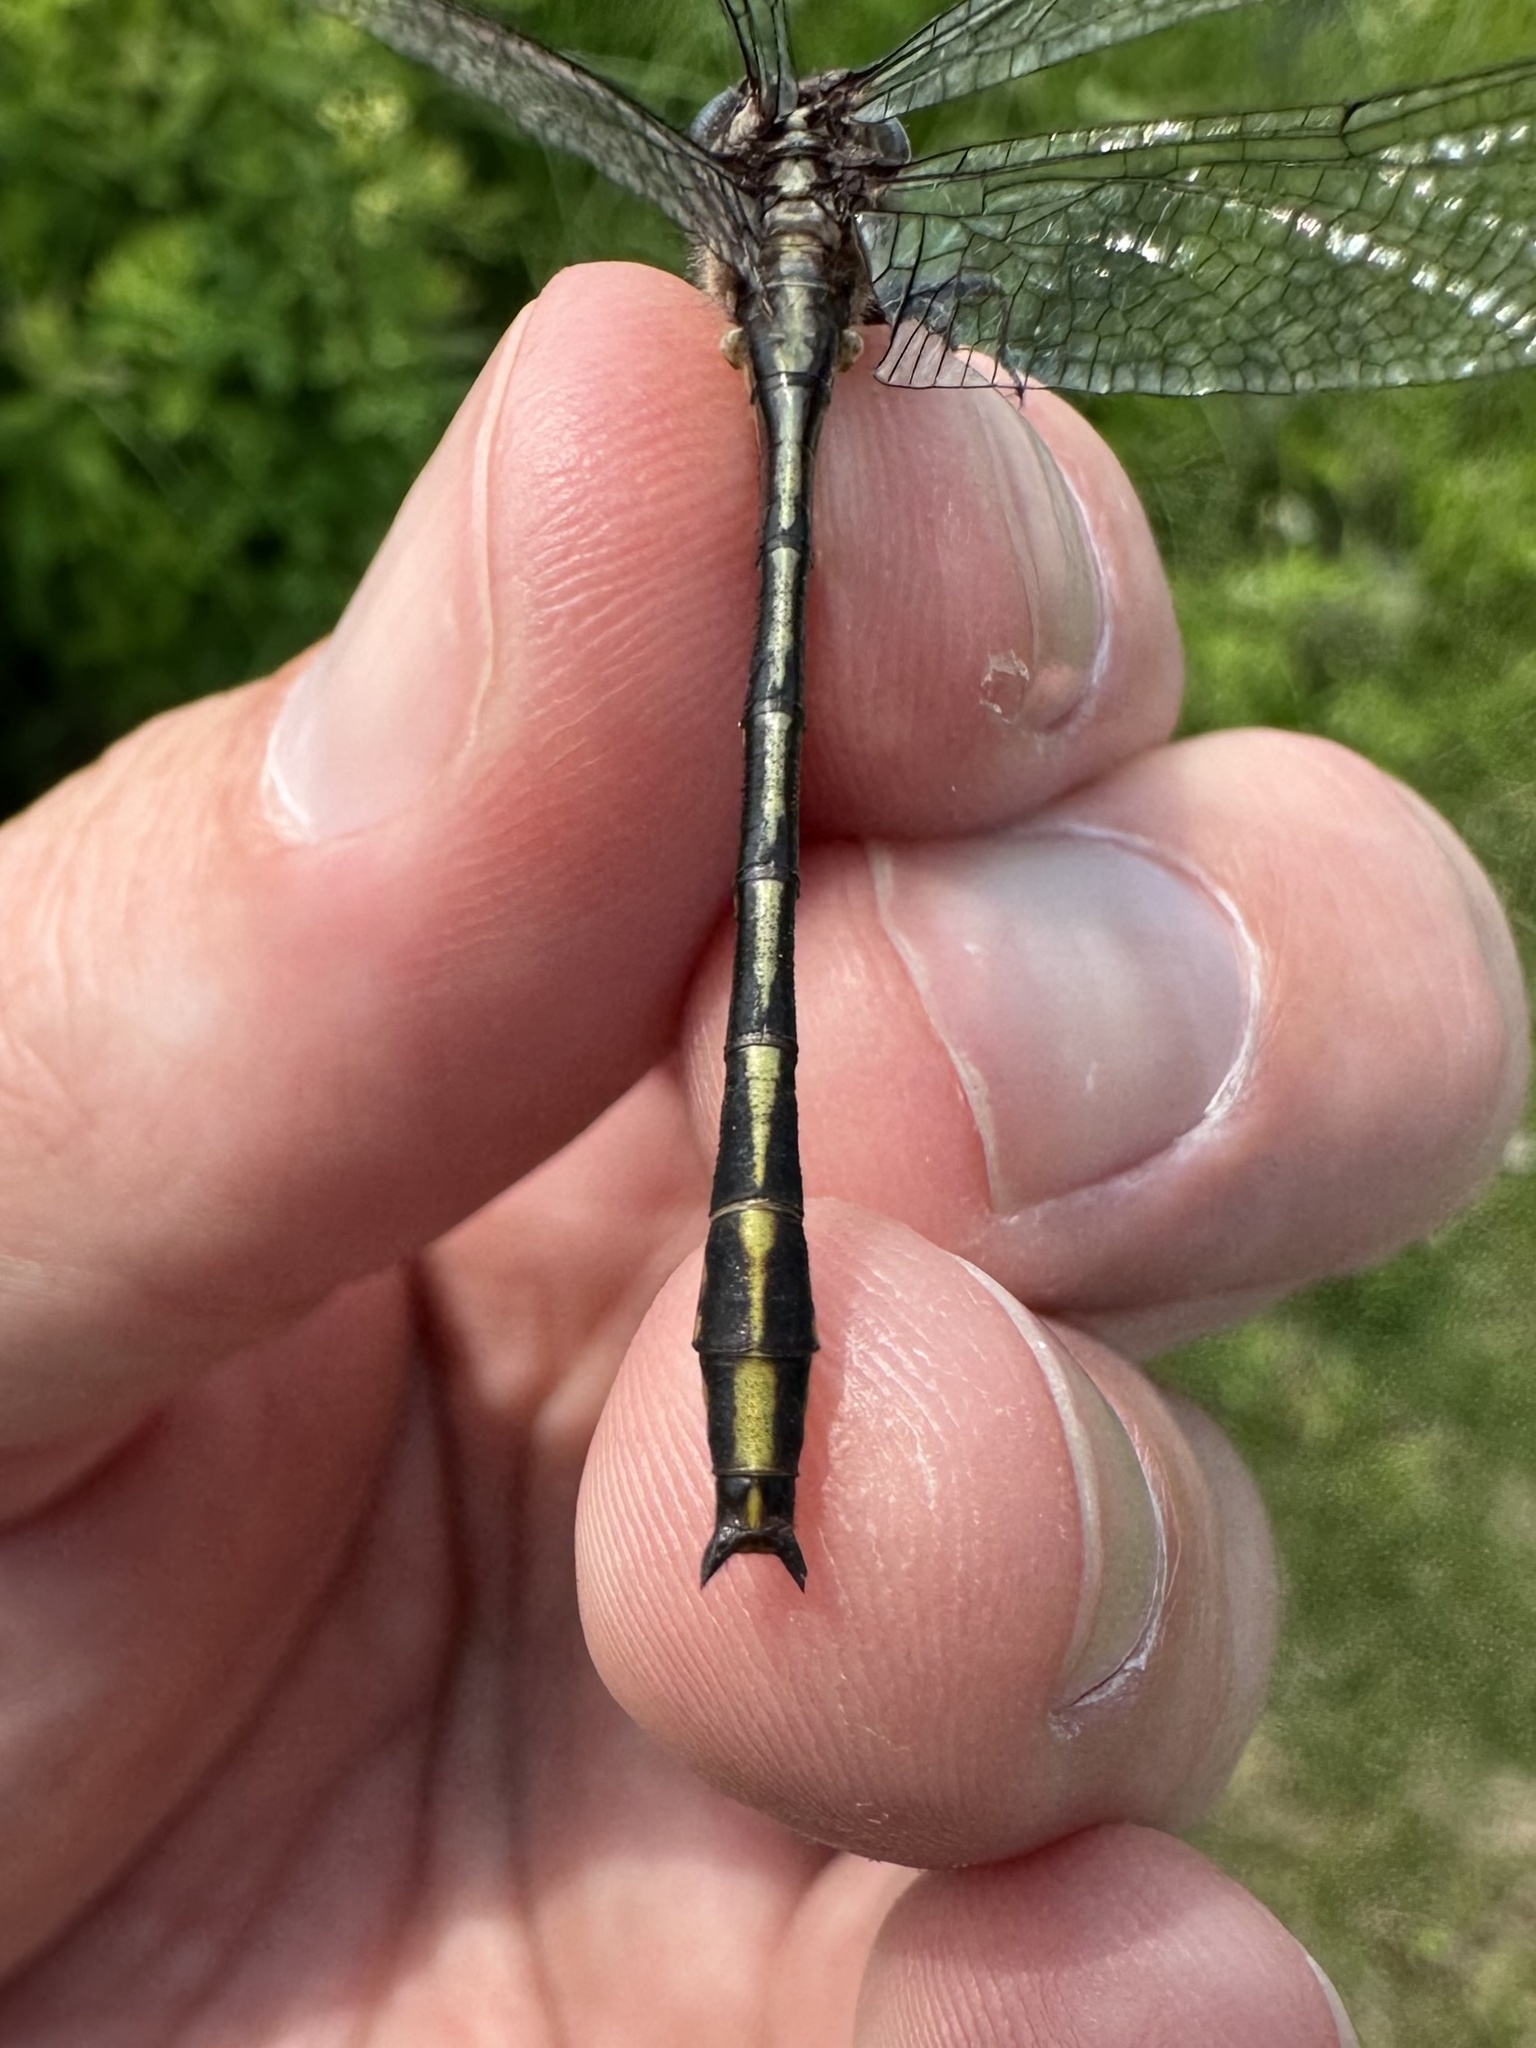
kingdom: Animalia
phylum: Arthropoda
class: Insecta
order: Odonata
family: Gomphidae
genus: Phanogomphus
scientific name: Phanogomphus exilis
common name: Lancet clubtail
